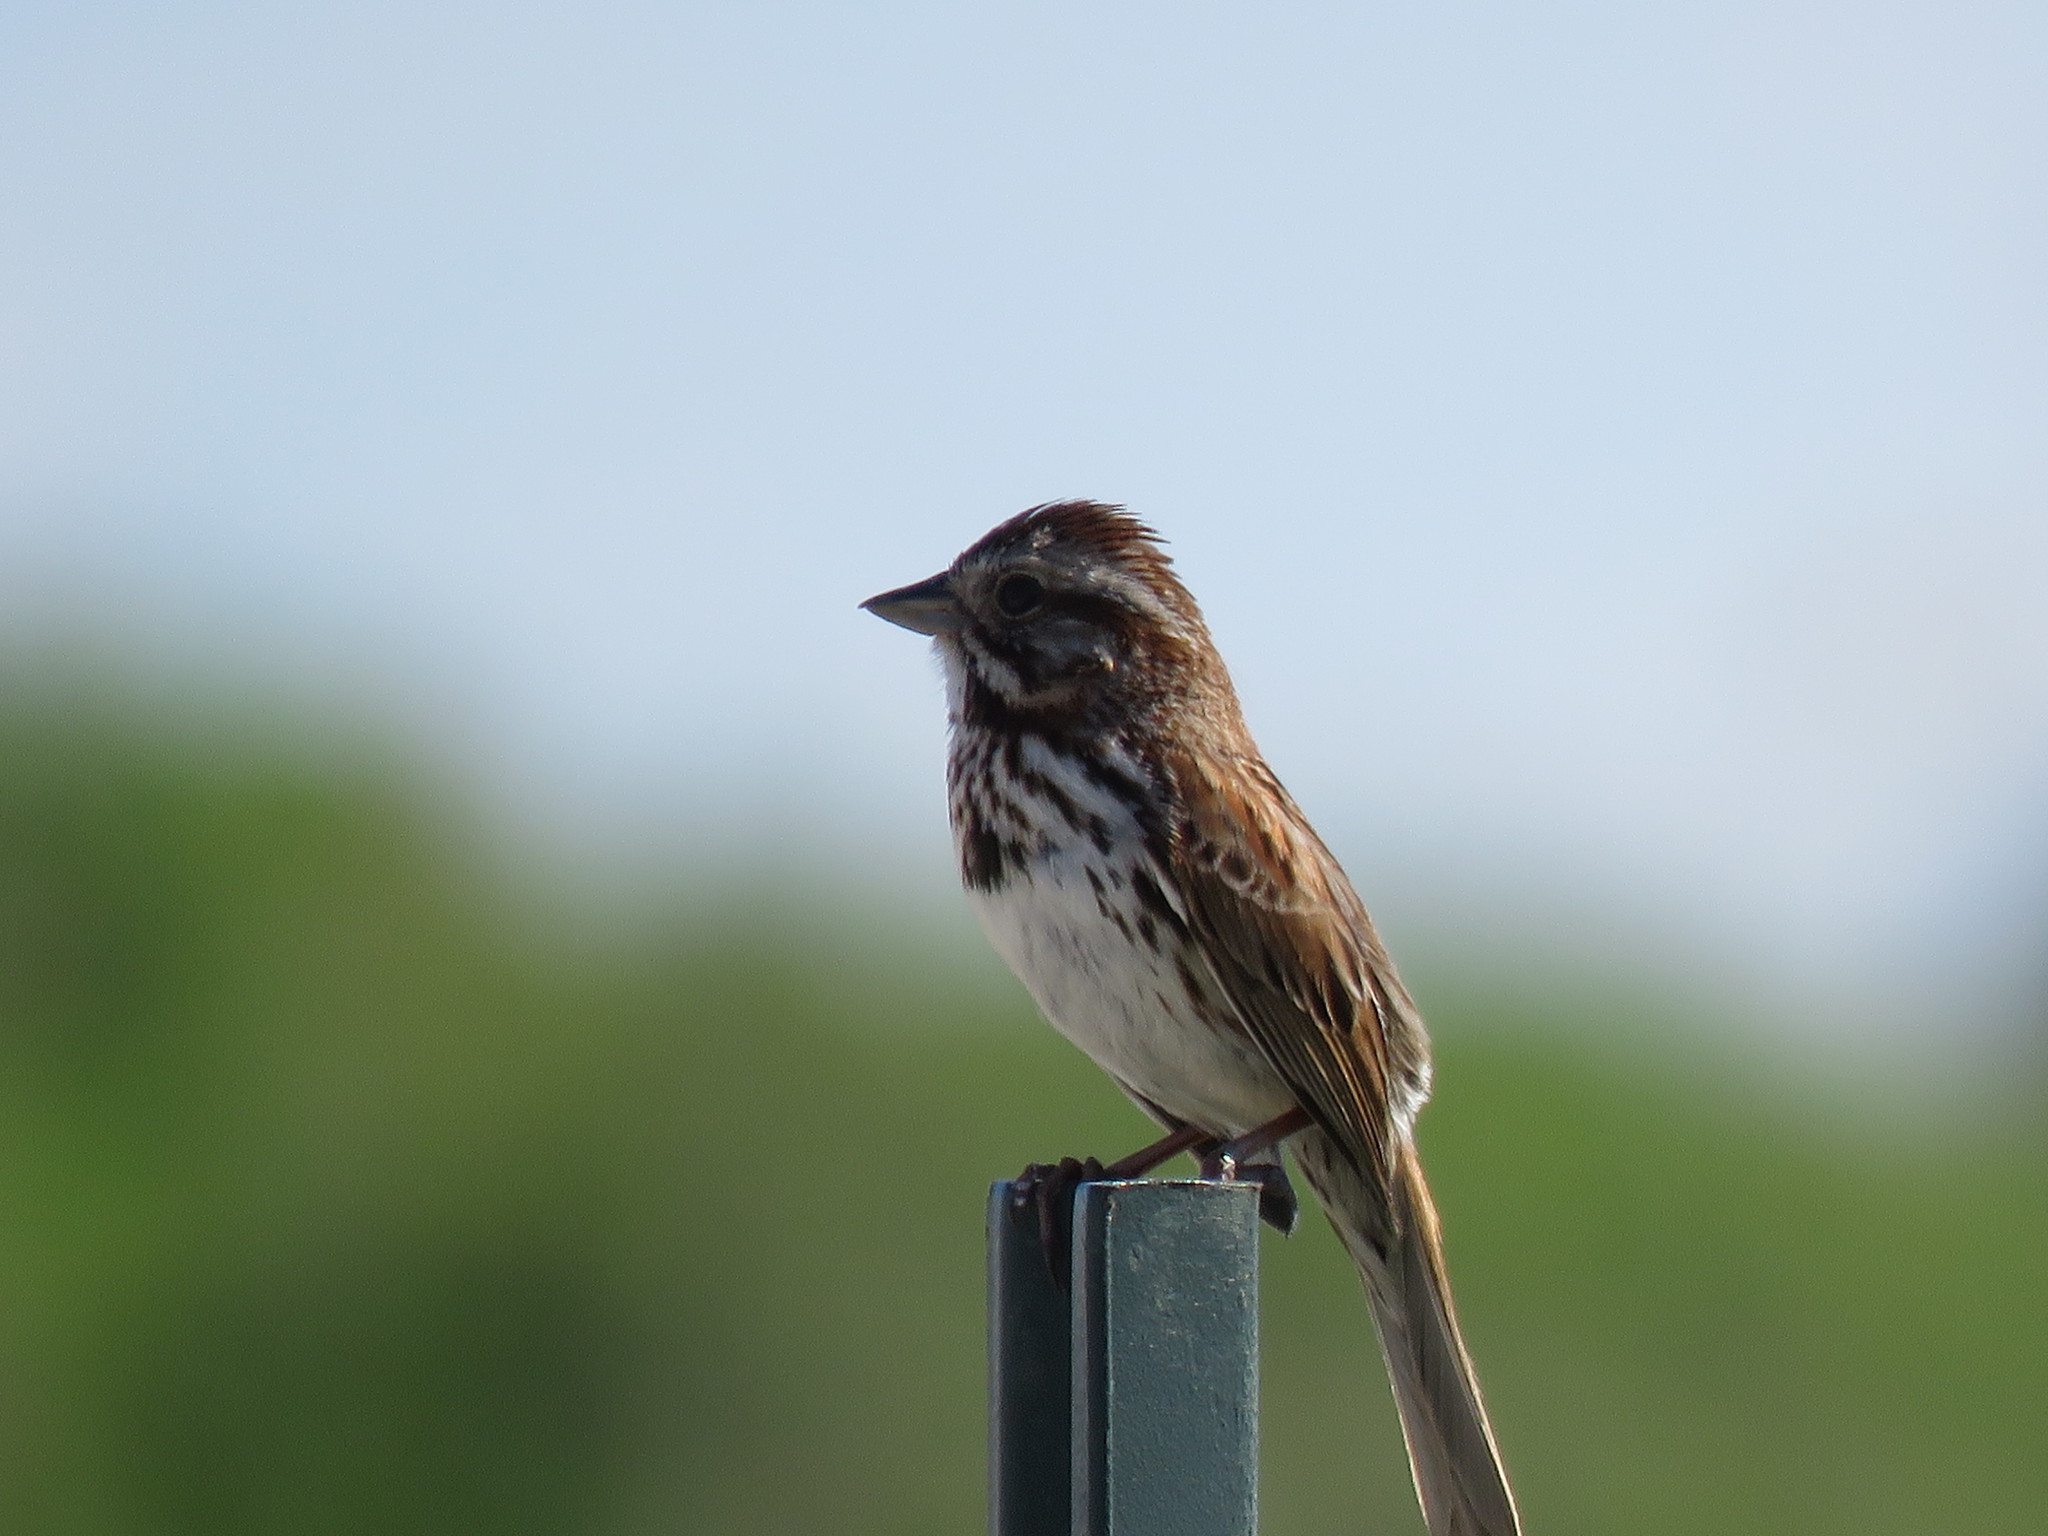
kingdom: Animalia
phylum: Chordata
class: Aves
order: Passeriformes
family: Passerellidae
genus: Melospiza
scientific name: Melospiza melodia
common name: Song sparrow
